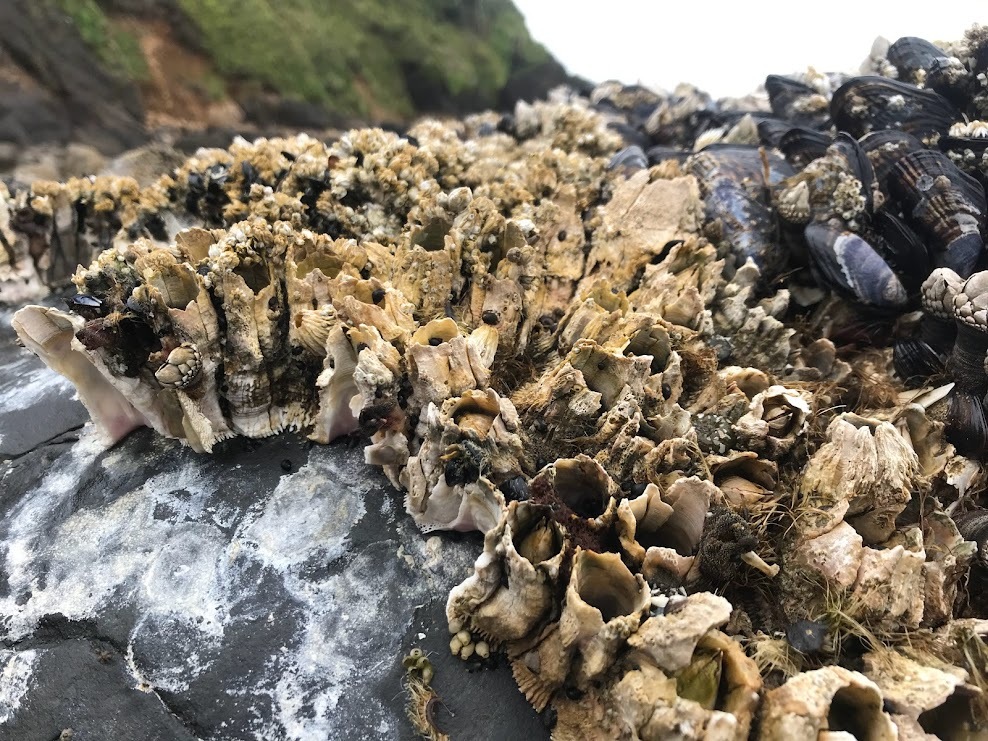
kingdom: Animalia
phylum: Arthropoda
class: Maxillopoda
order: Sessilia
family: Archaeobalanidae
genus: Semibalanus
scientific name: Semibalanus cariosus
